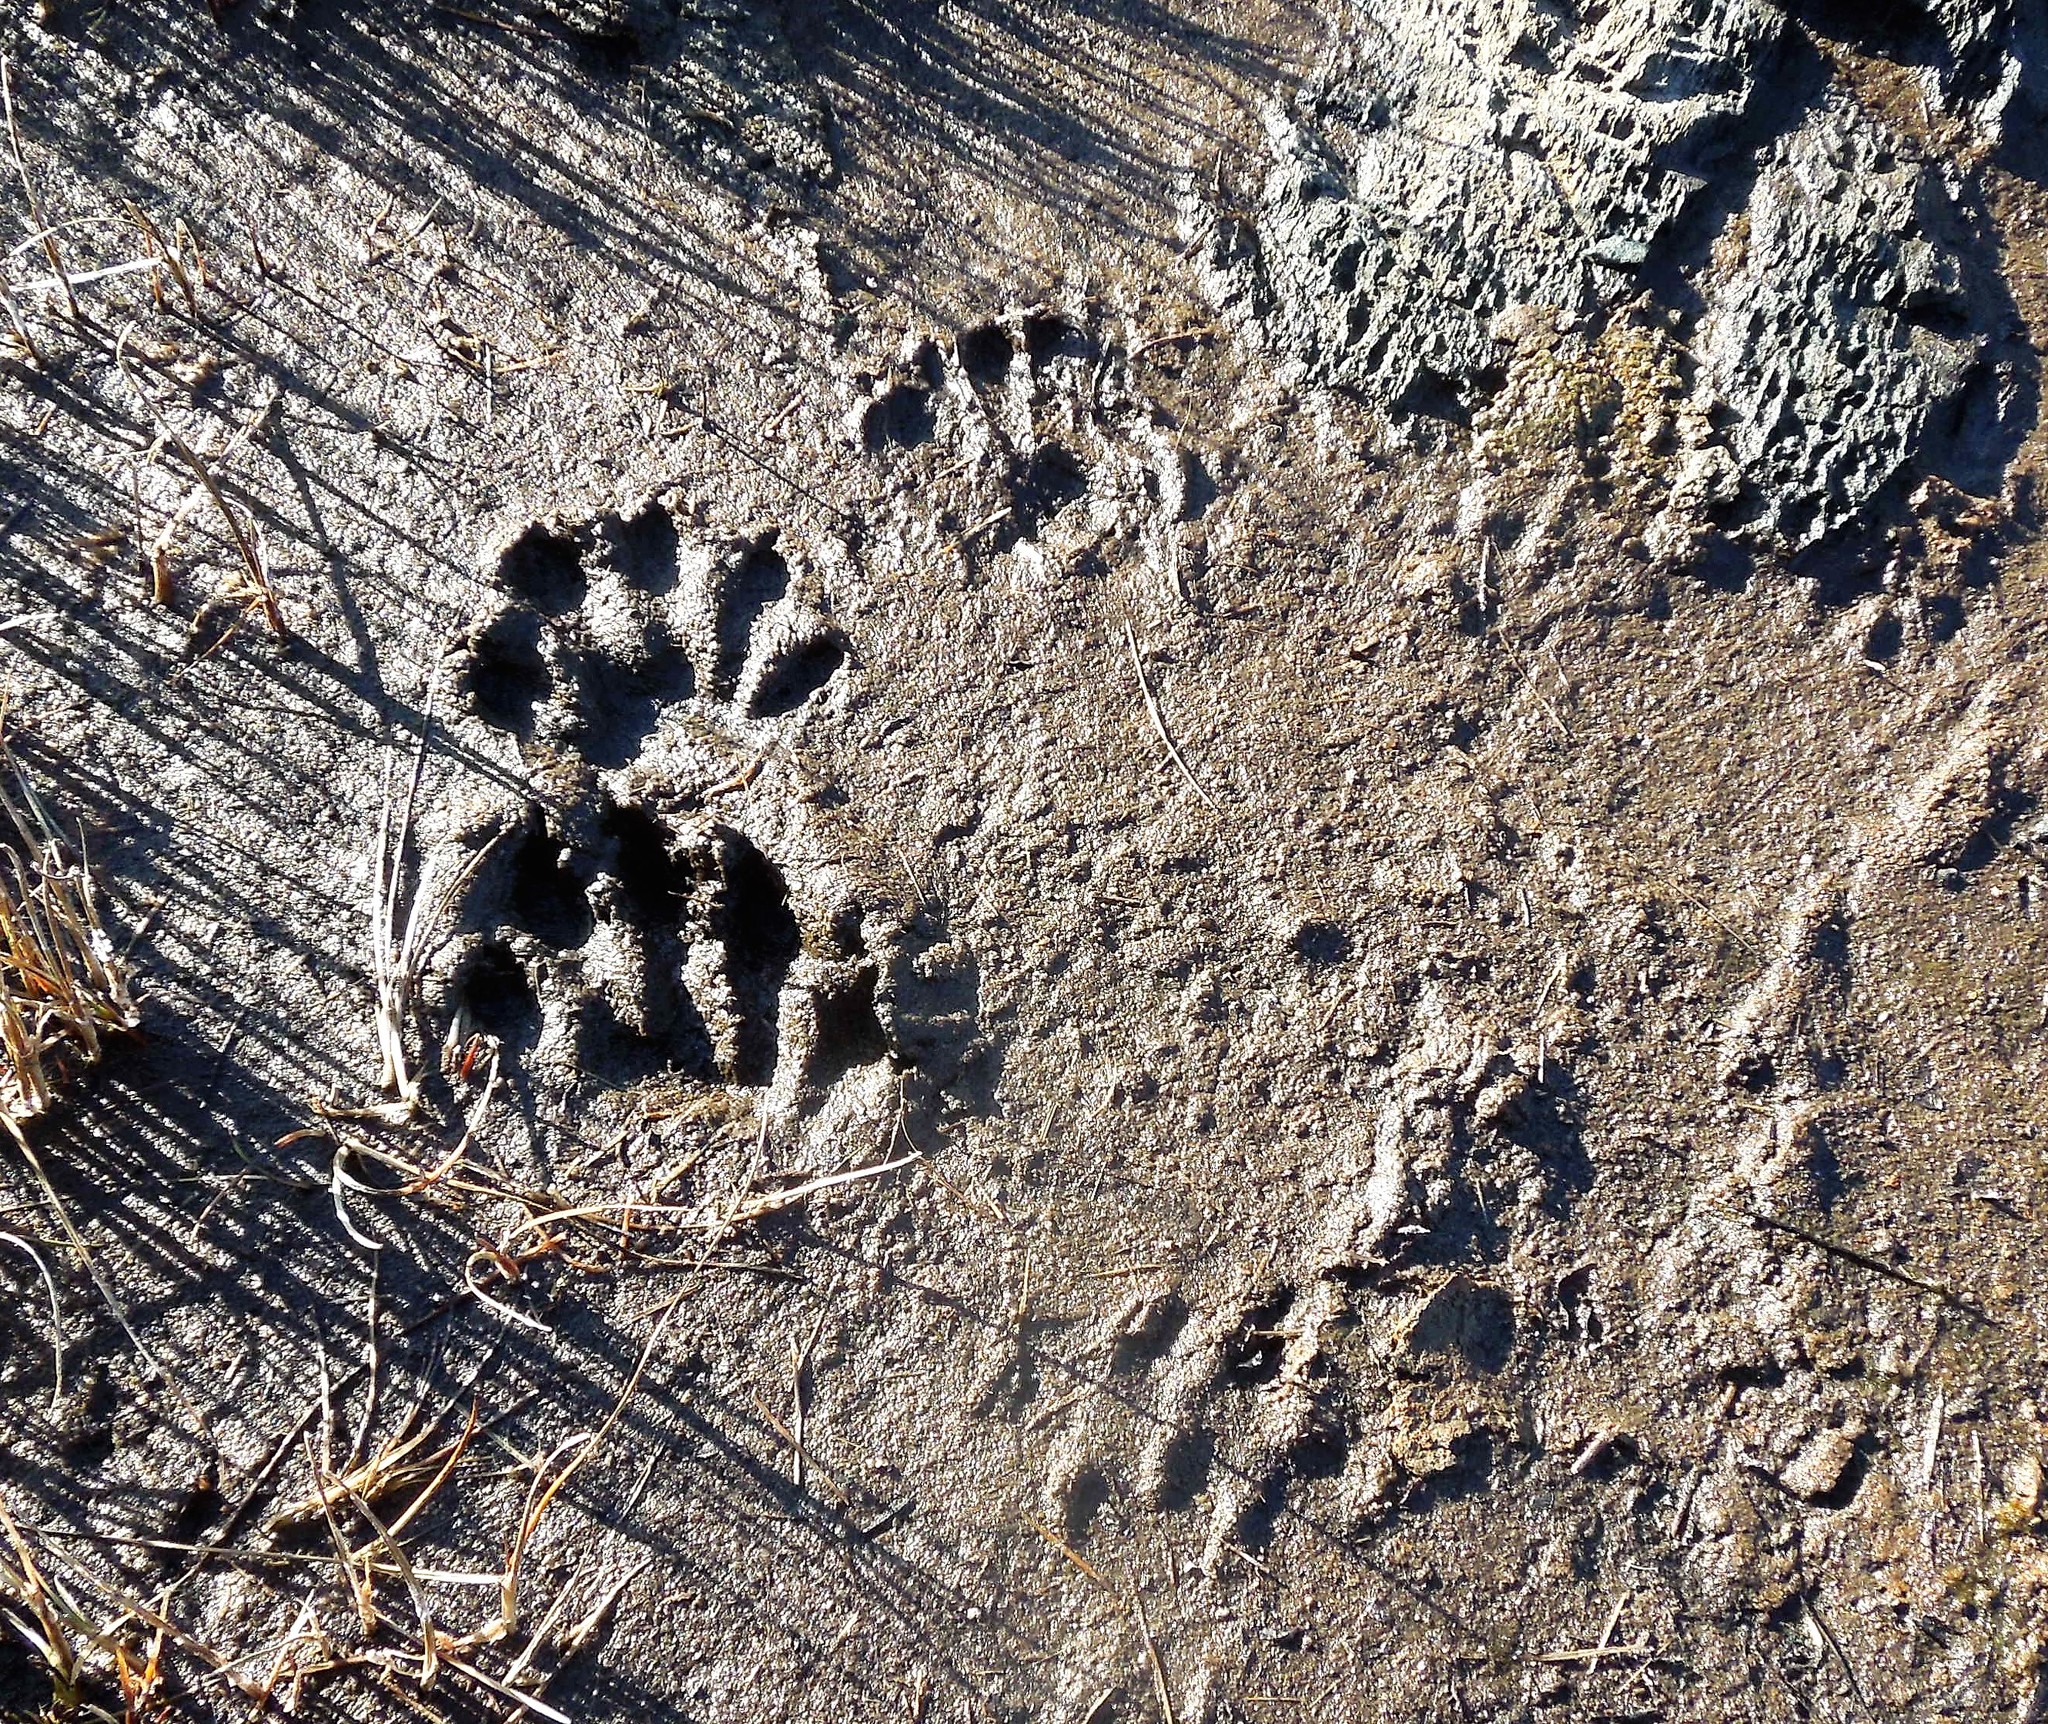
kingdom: Animalia
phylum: Chordata
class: Mammalia
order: Carnivora
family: Mustelidae
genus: Lontra
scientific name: Lontra canadensis
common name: North american river otter
